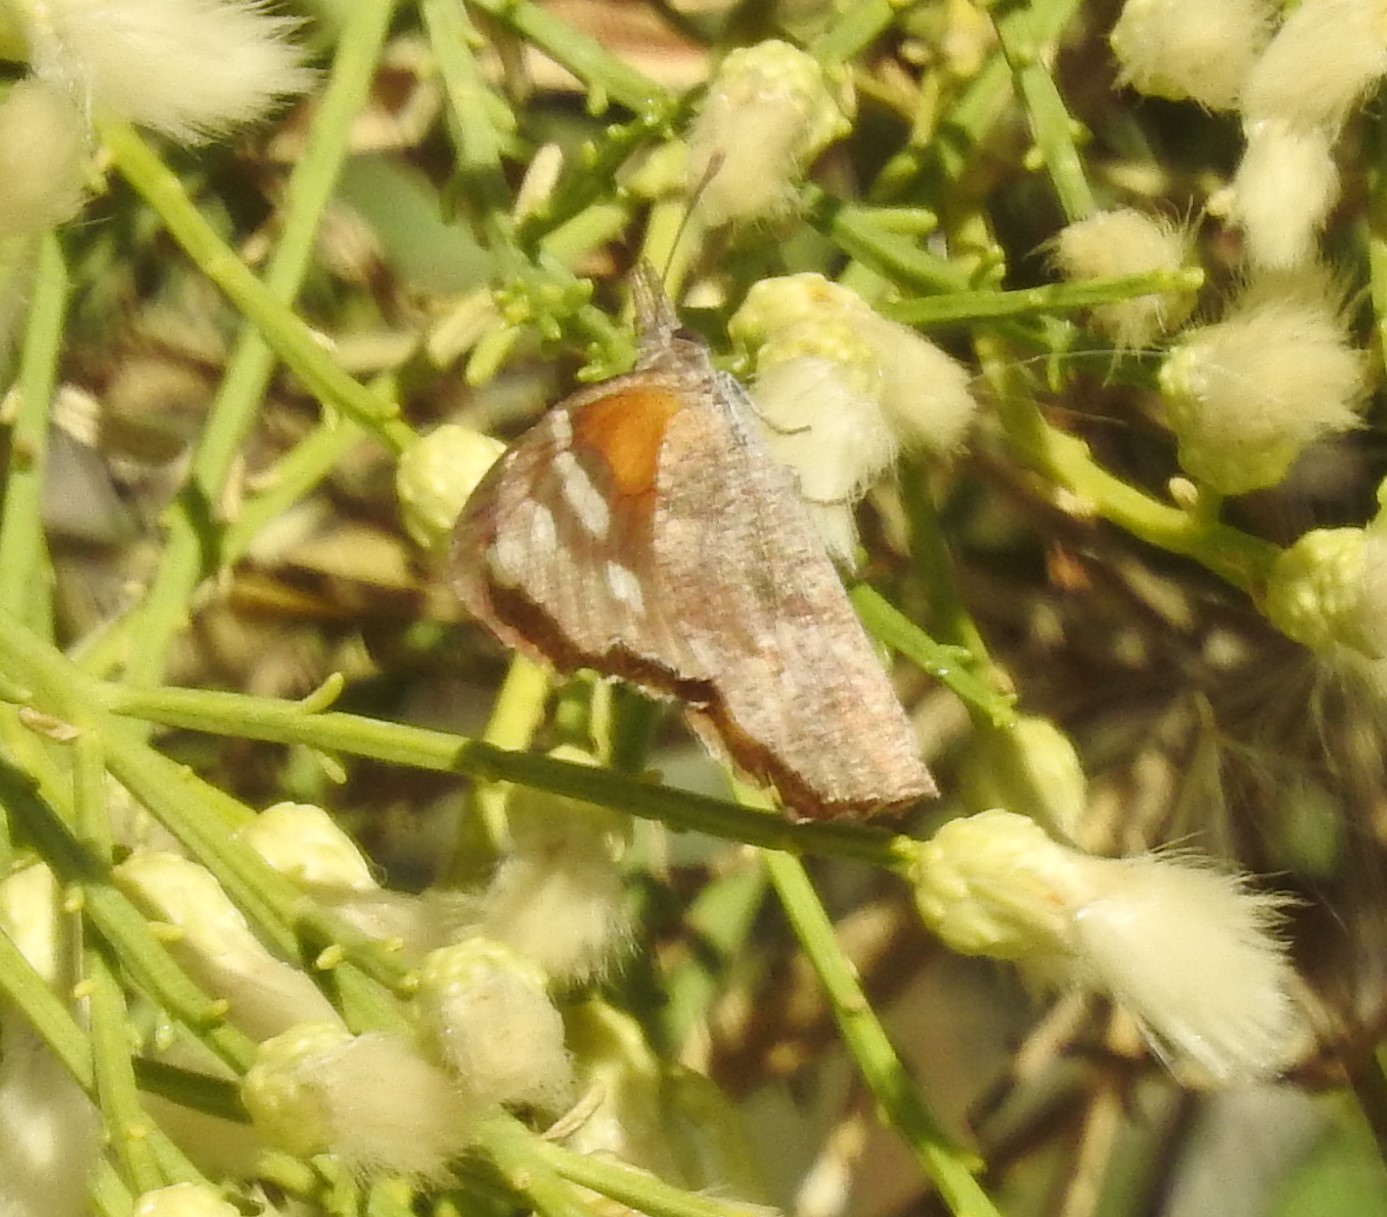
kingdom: Animalia
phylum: Arthropoda
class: Insecta
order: Lepidoptera
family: Nymphalidae
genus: Libytheana
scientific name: Libytheana carinenta
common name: American snout
